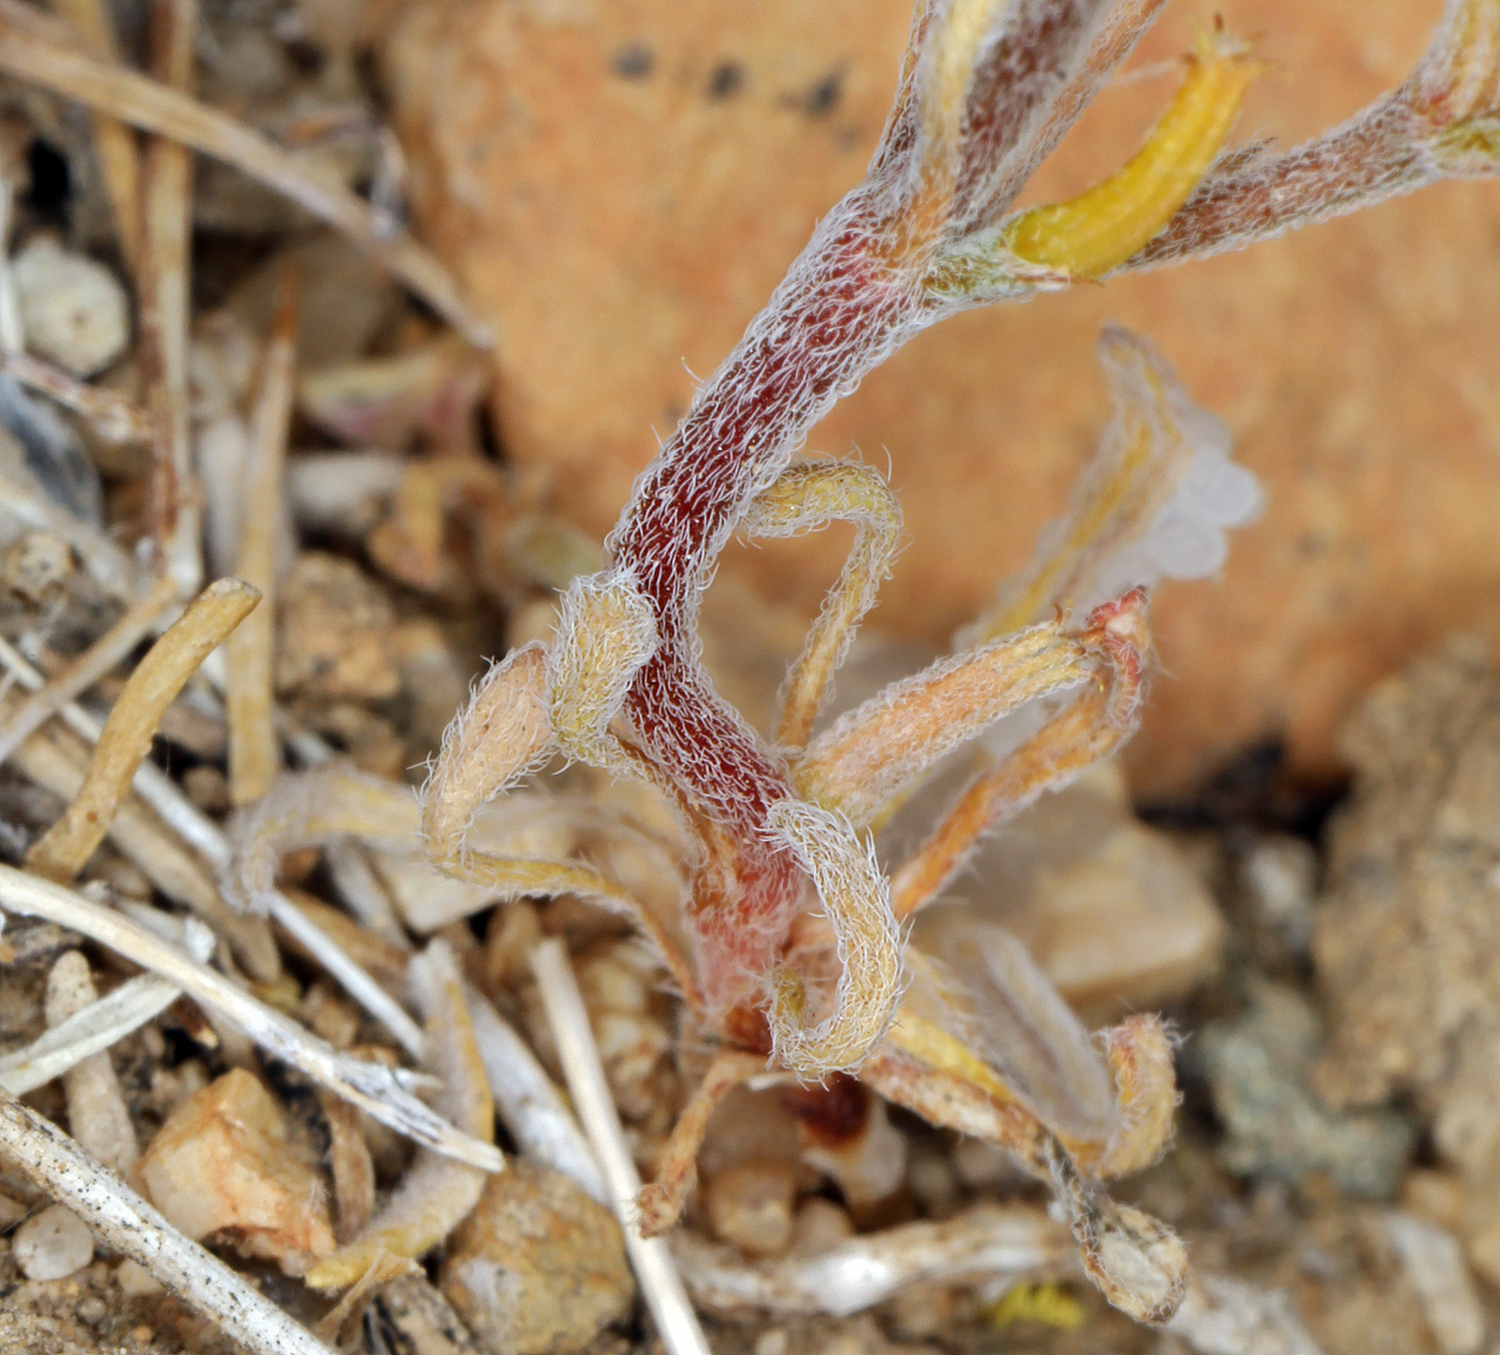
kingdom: Plantae
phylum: Tracheophyta
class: Magnoliopsida
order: Caryophyllales
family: Polygonaceae
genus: Chorizanthe
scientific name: Chorizanthe brevicornu
